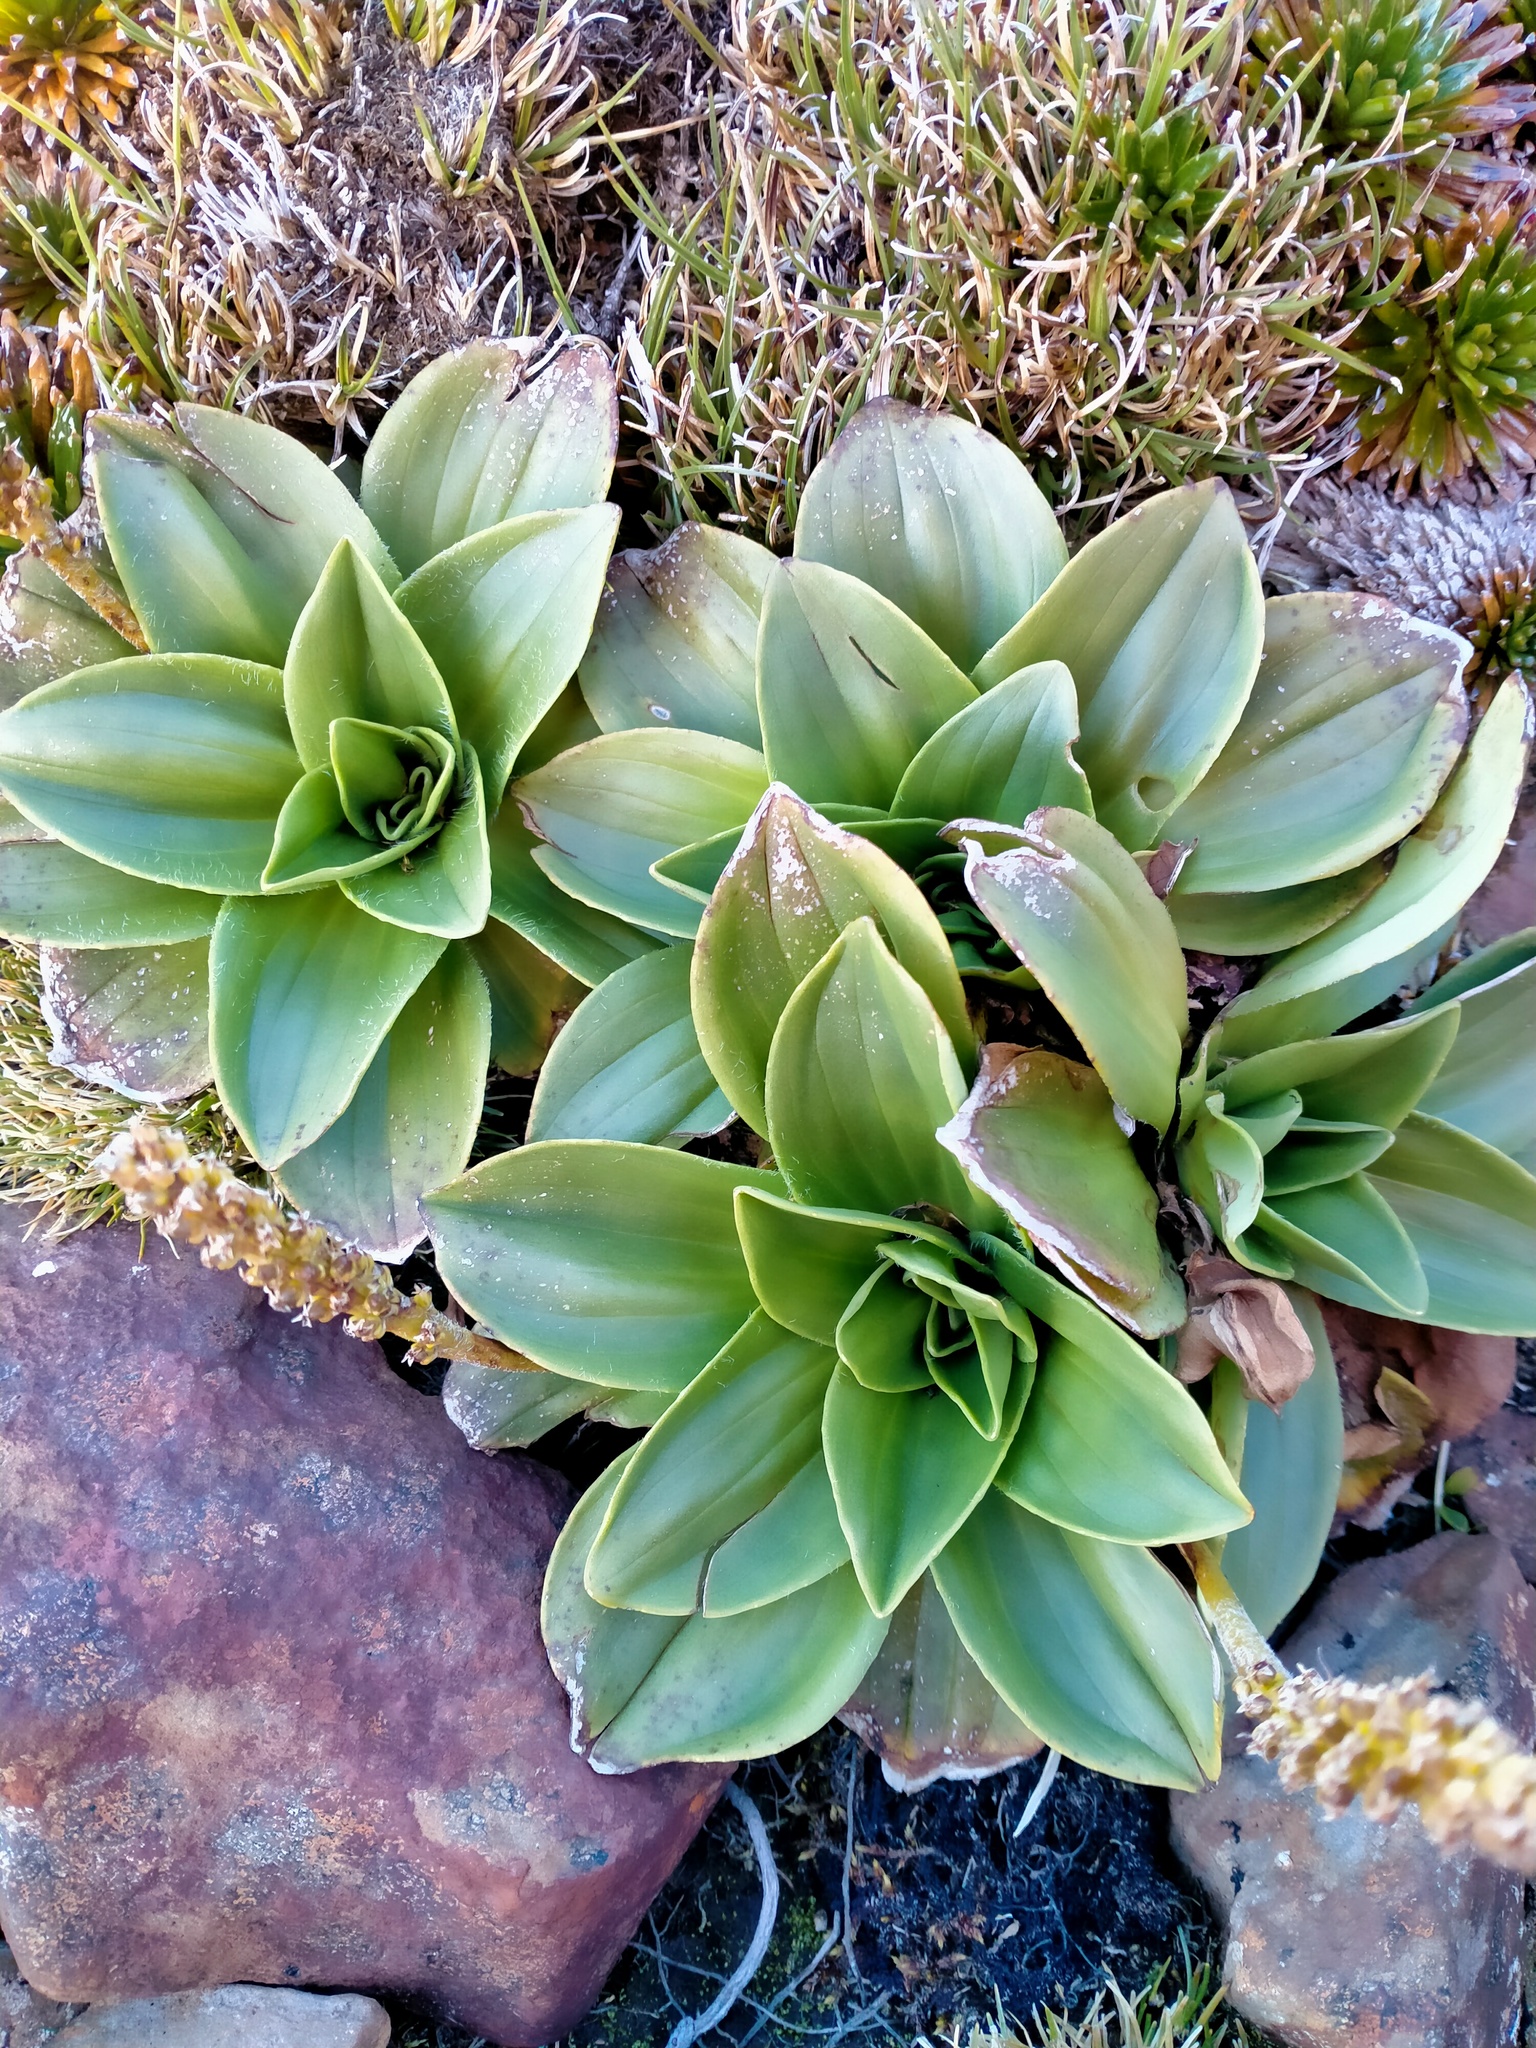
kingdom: Plantae
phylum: Tracheophyta
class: Magnoliopsida
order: Lamiales
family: Plantaginaceae
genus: Plantago
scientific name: Plantago aucklandica
